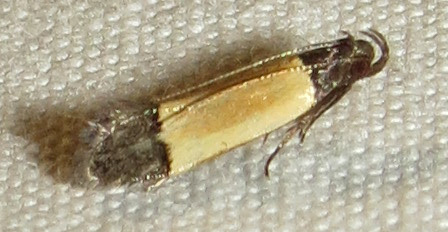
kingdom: Animalia
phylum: Arthropoda
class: Insecta
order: Lepidoptera
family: Gelechiidae
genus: Anacampsis
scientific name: Anacampsis coverdalella
